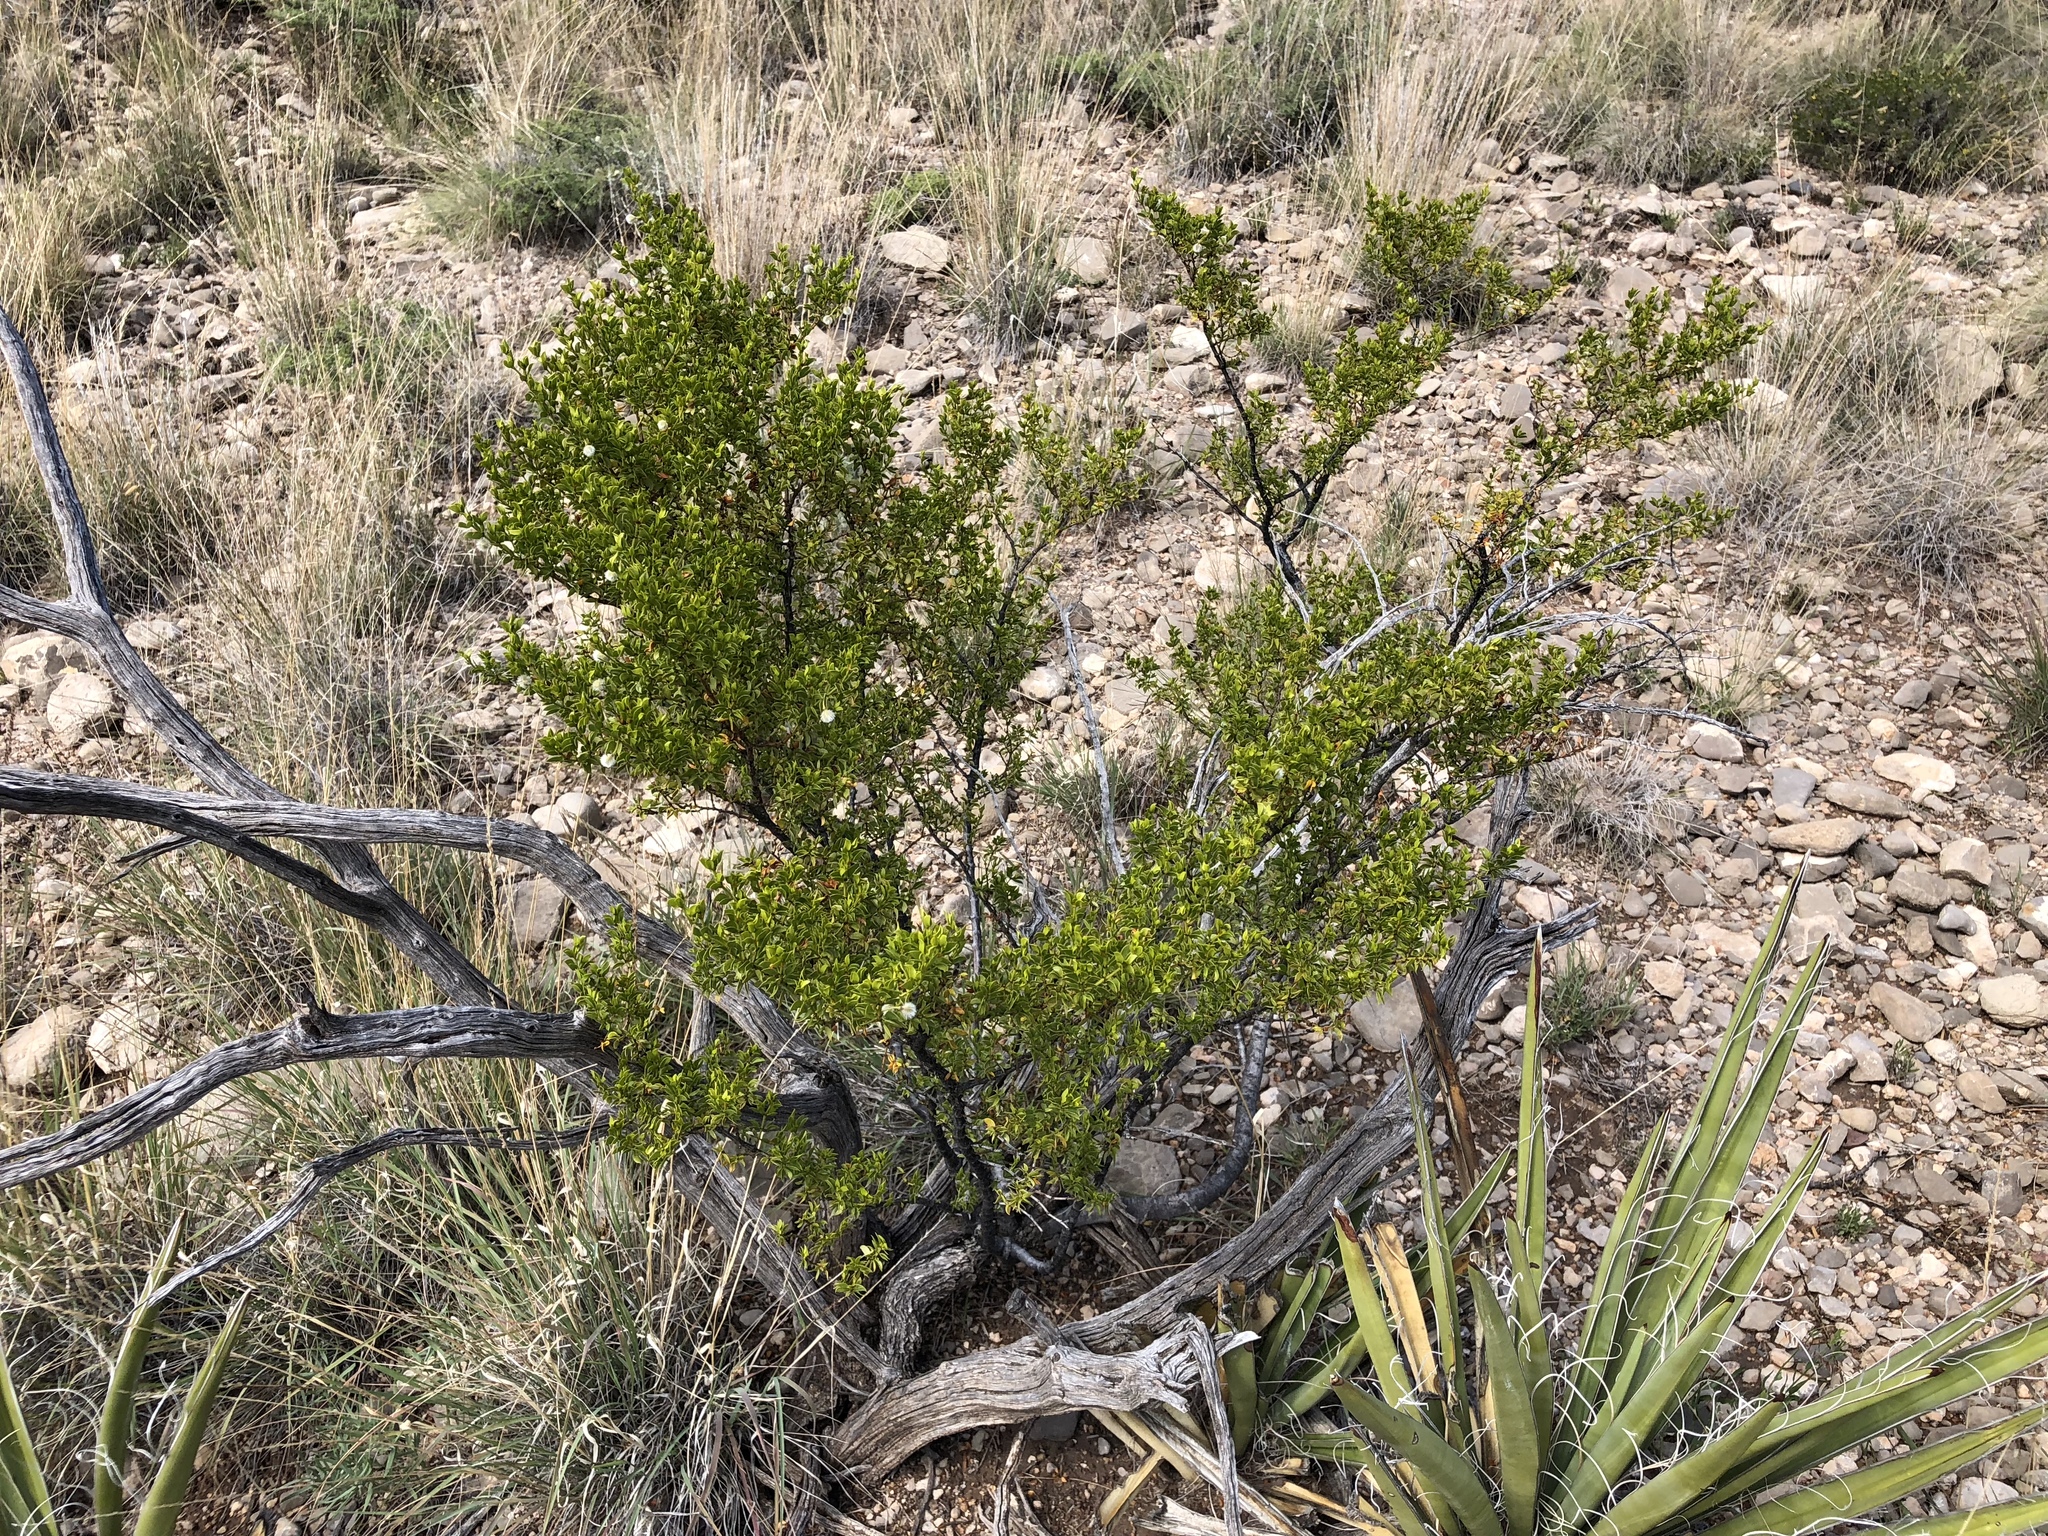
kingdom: Plantae
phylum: Tracheophyta
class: Pinopsida
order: Pinales
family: Cupressaceae
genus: Juniperus
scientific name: Juniperus monosperma
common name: One-seed juniper
